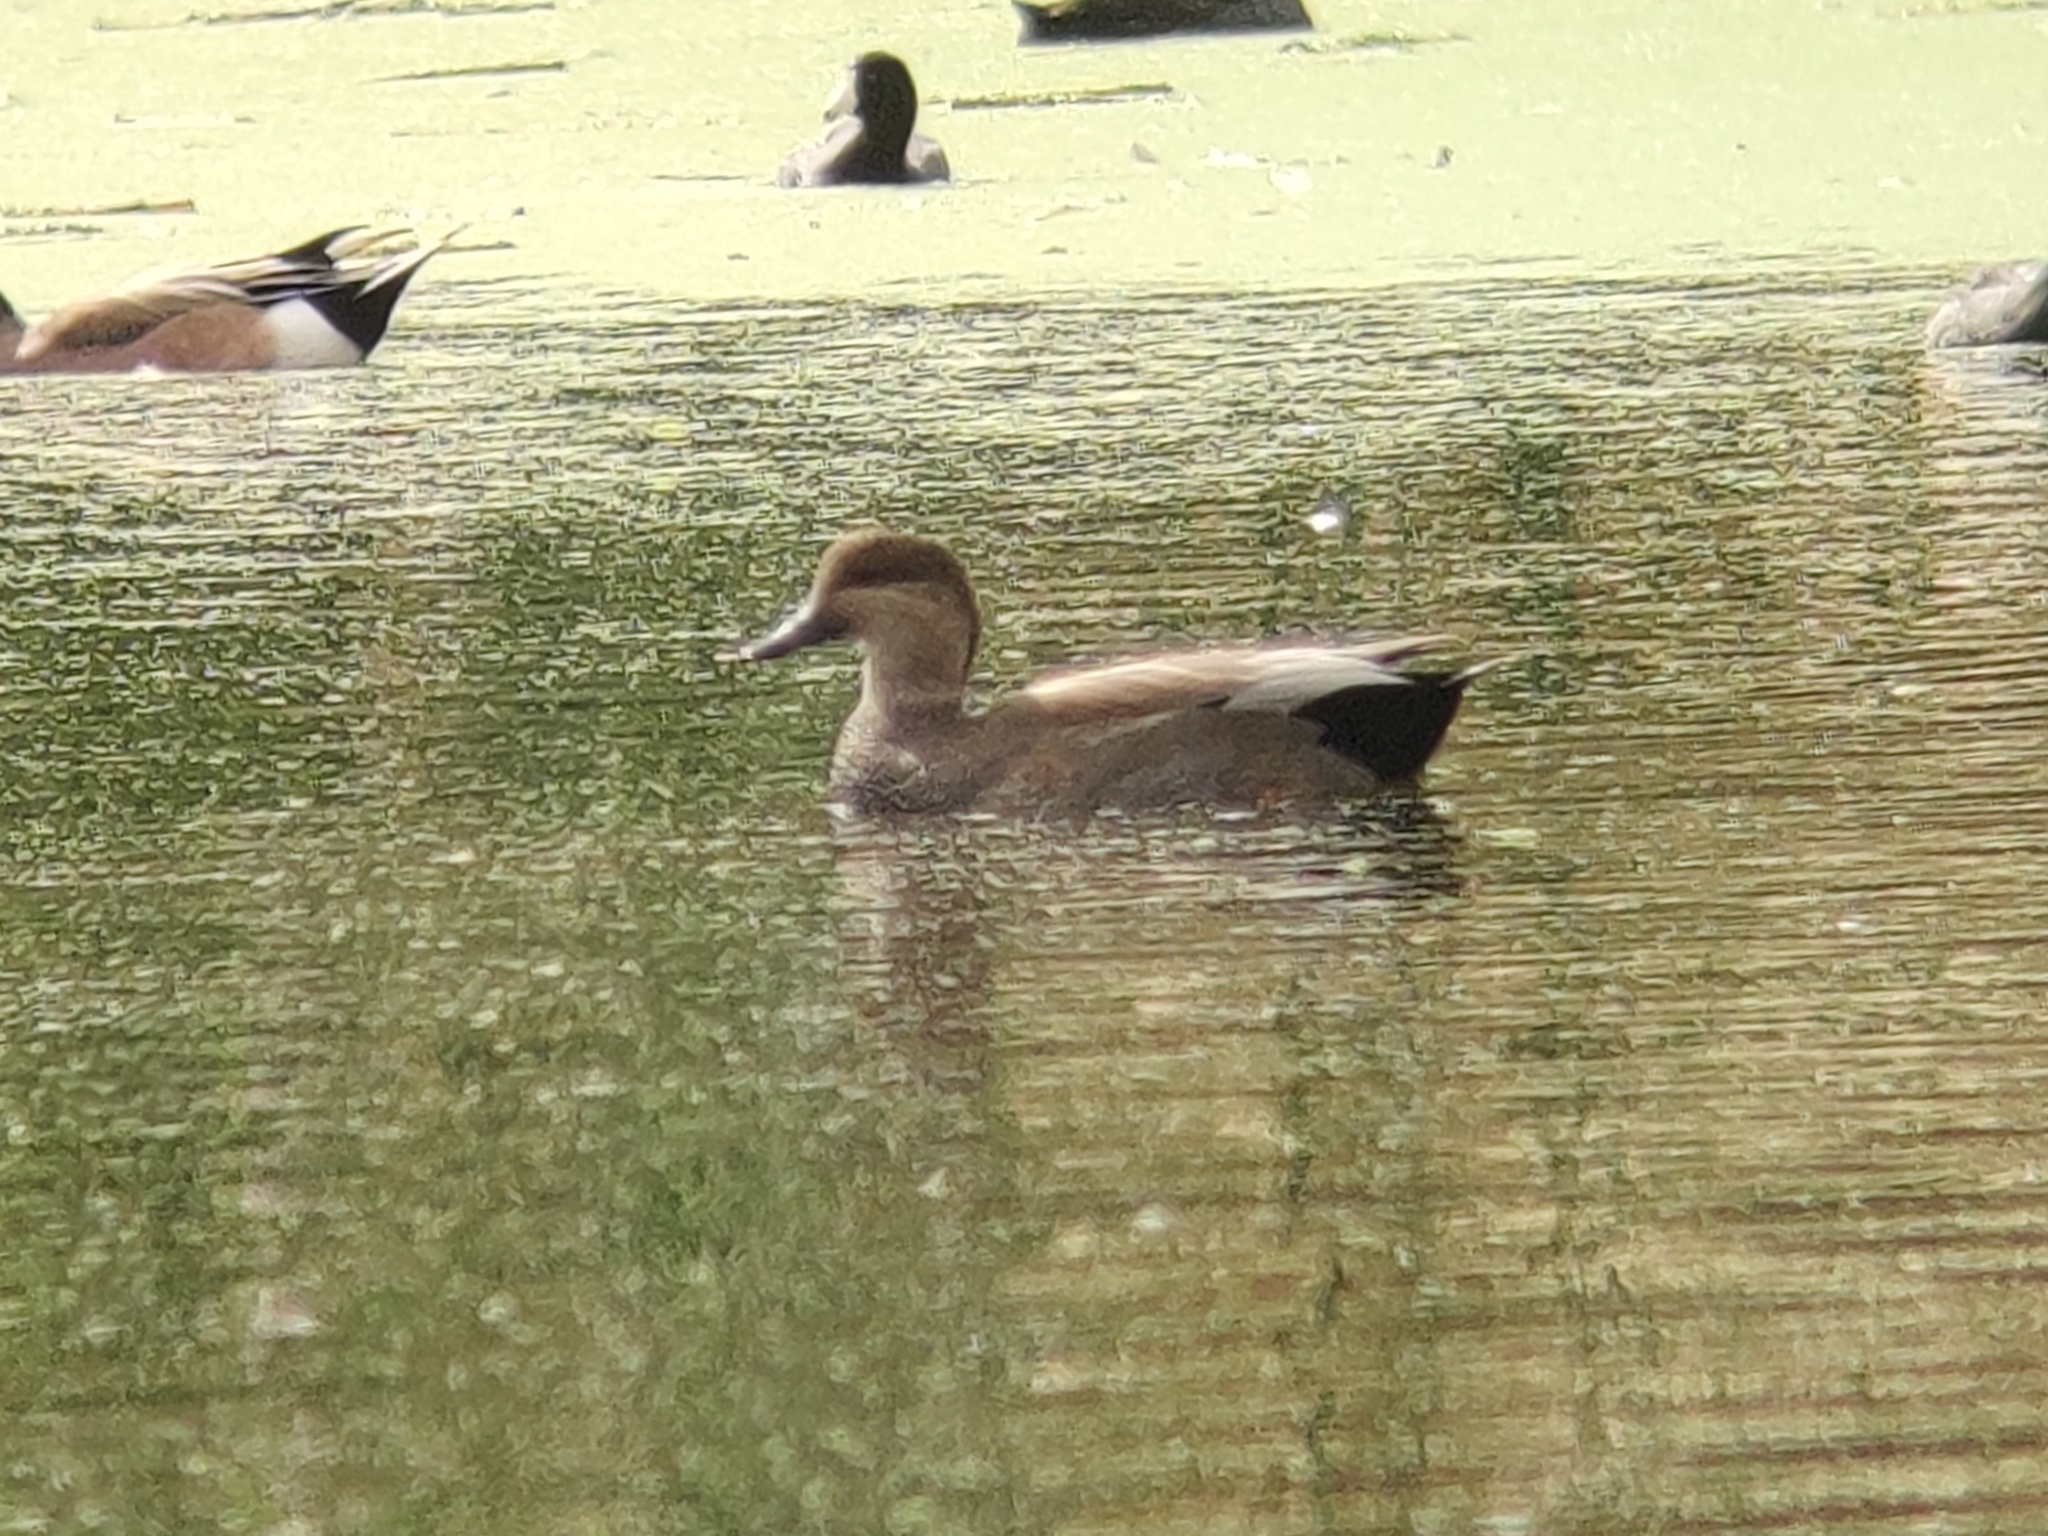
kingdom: Animalia
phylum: Chordata
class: Aves
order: Anseriformes
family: Anatidae
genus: Mareca
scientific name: Mareca strepera
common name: Gadwall
